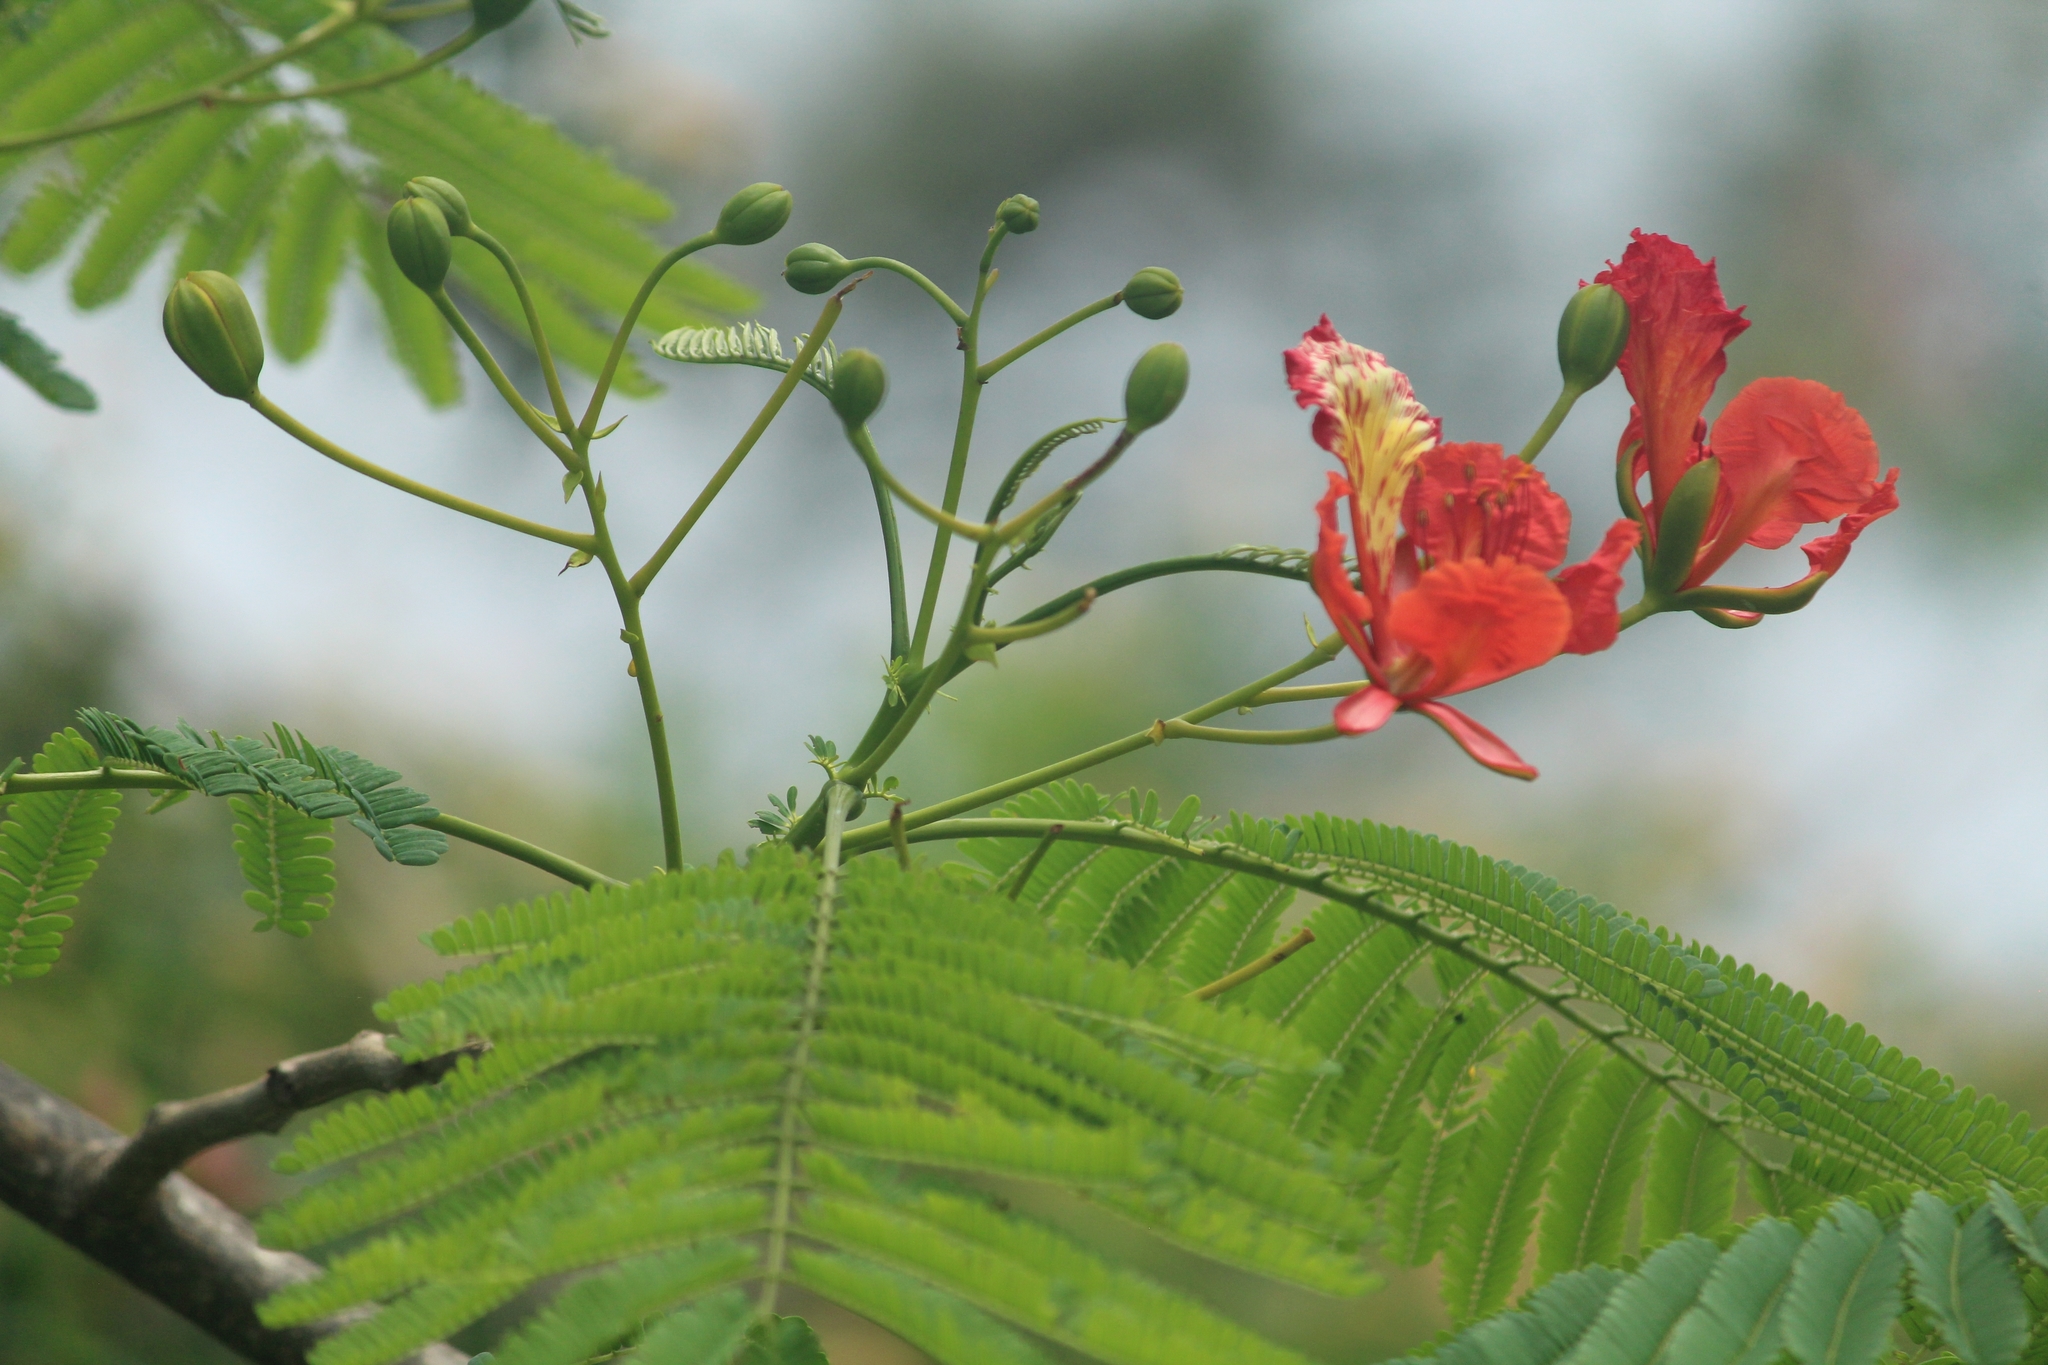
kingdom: Plantae
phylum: Tracheophyta
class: Magnoliopsida
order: Fabales
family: Fabaceae
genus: Delonix
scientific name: Delonix regia
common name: Royal poinciana
